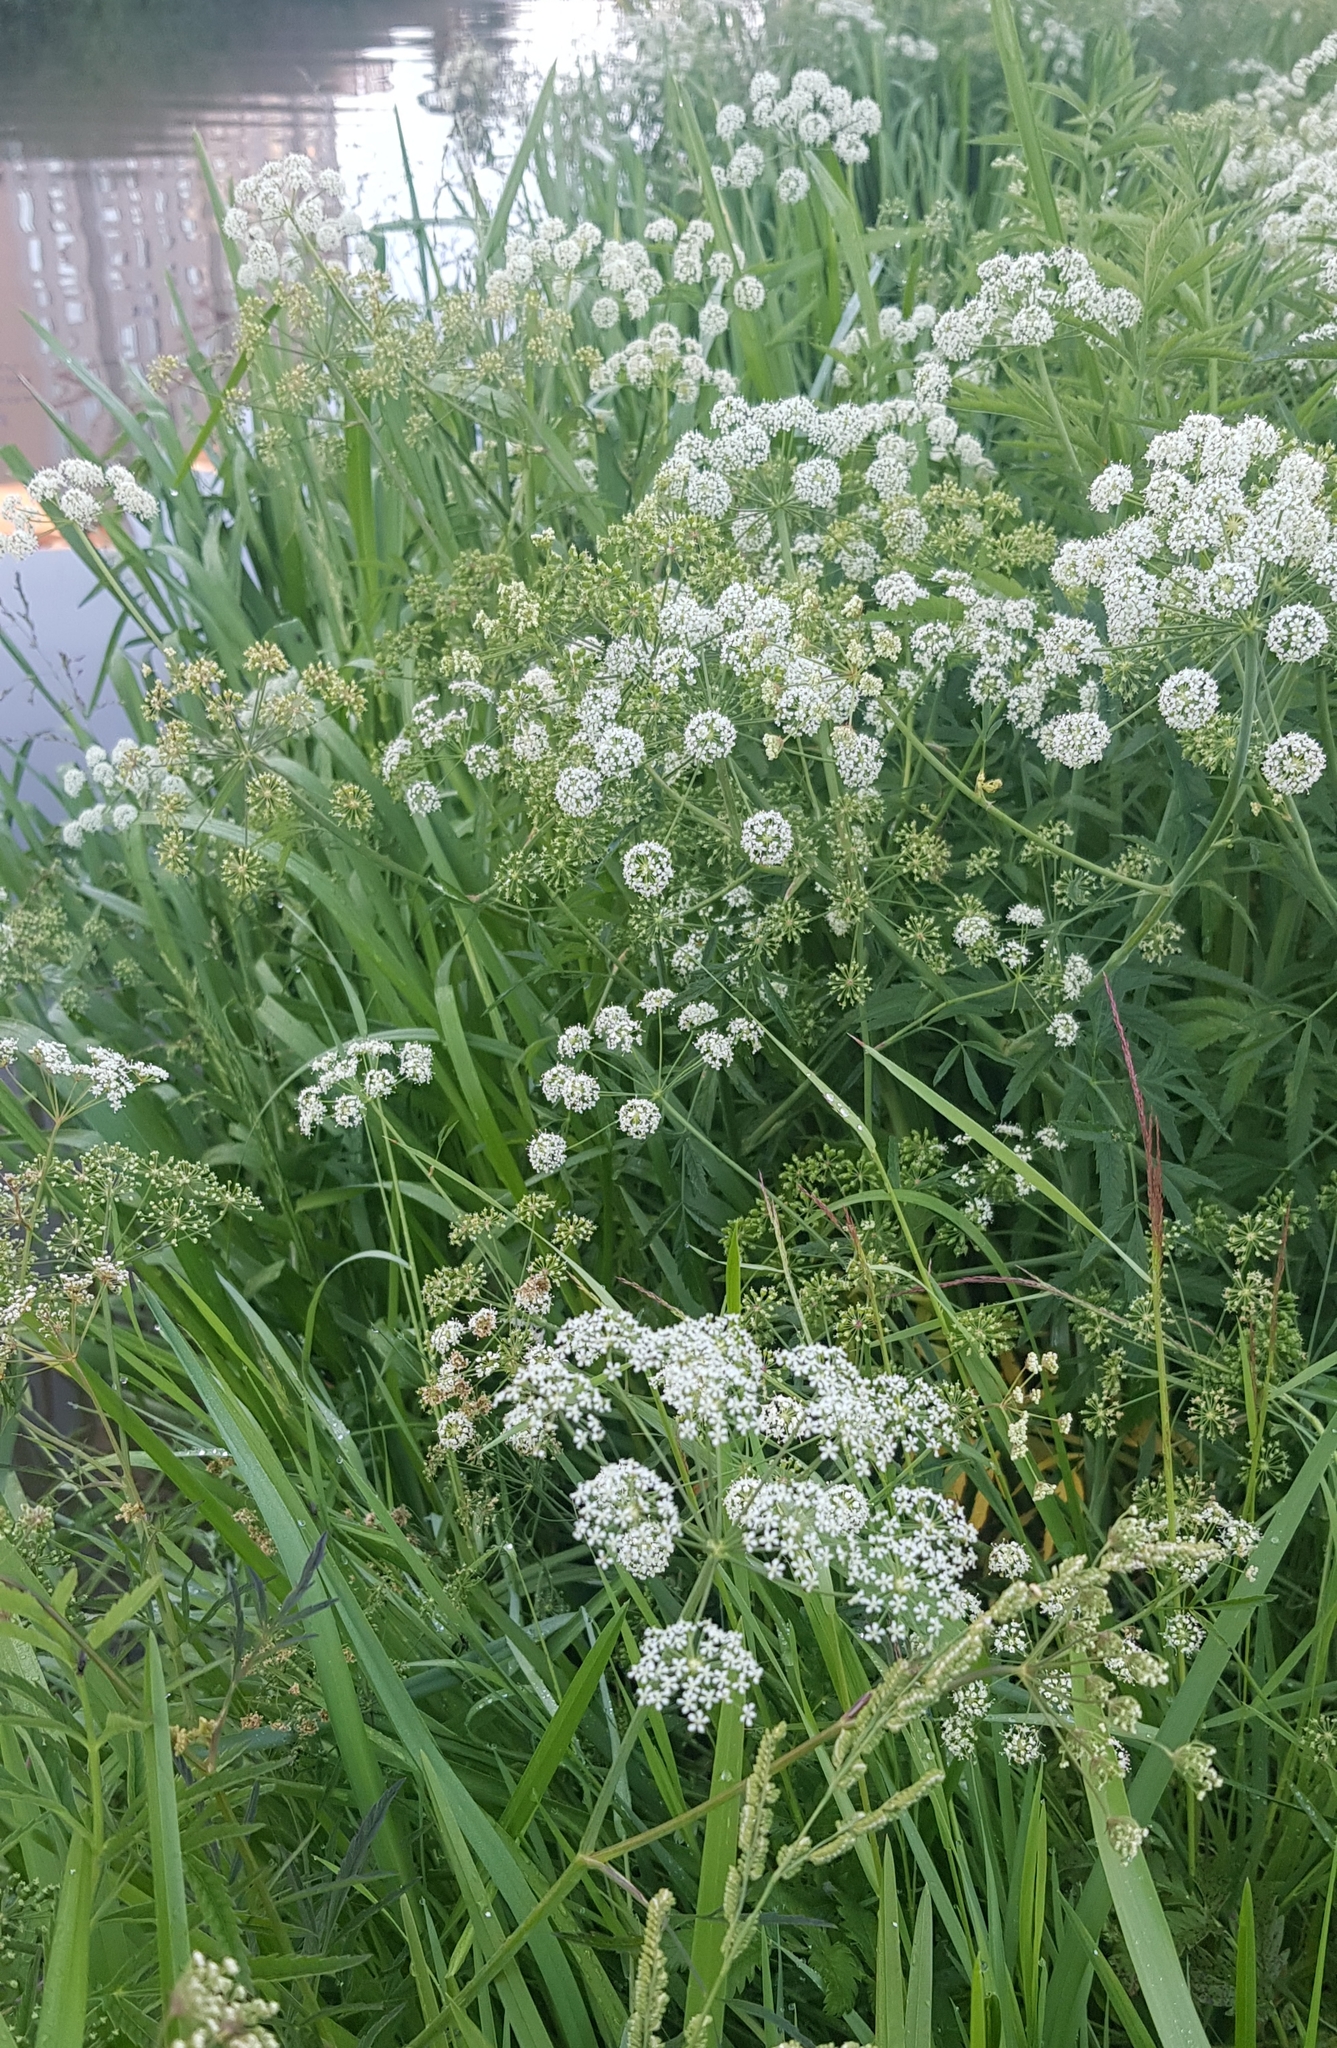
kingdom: Plantae
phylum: Tracheophyta
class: Magnoliopsida
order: Apiales
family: Apiaceae
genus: Cicuta
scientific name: Cicuta virosa
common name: Cowbane
